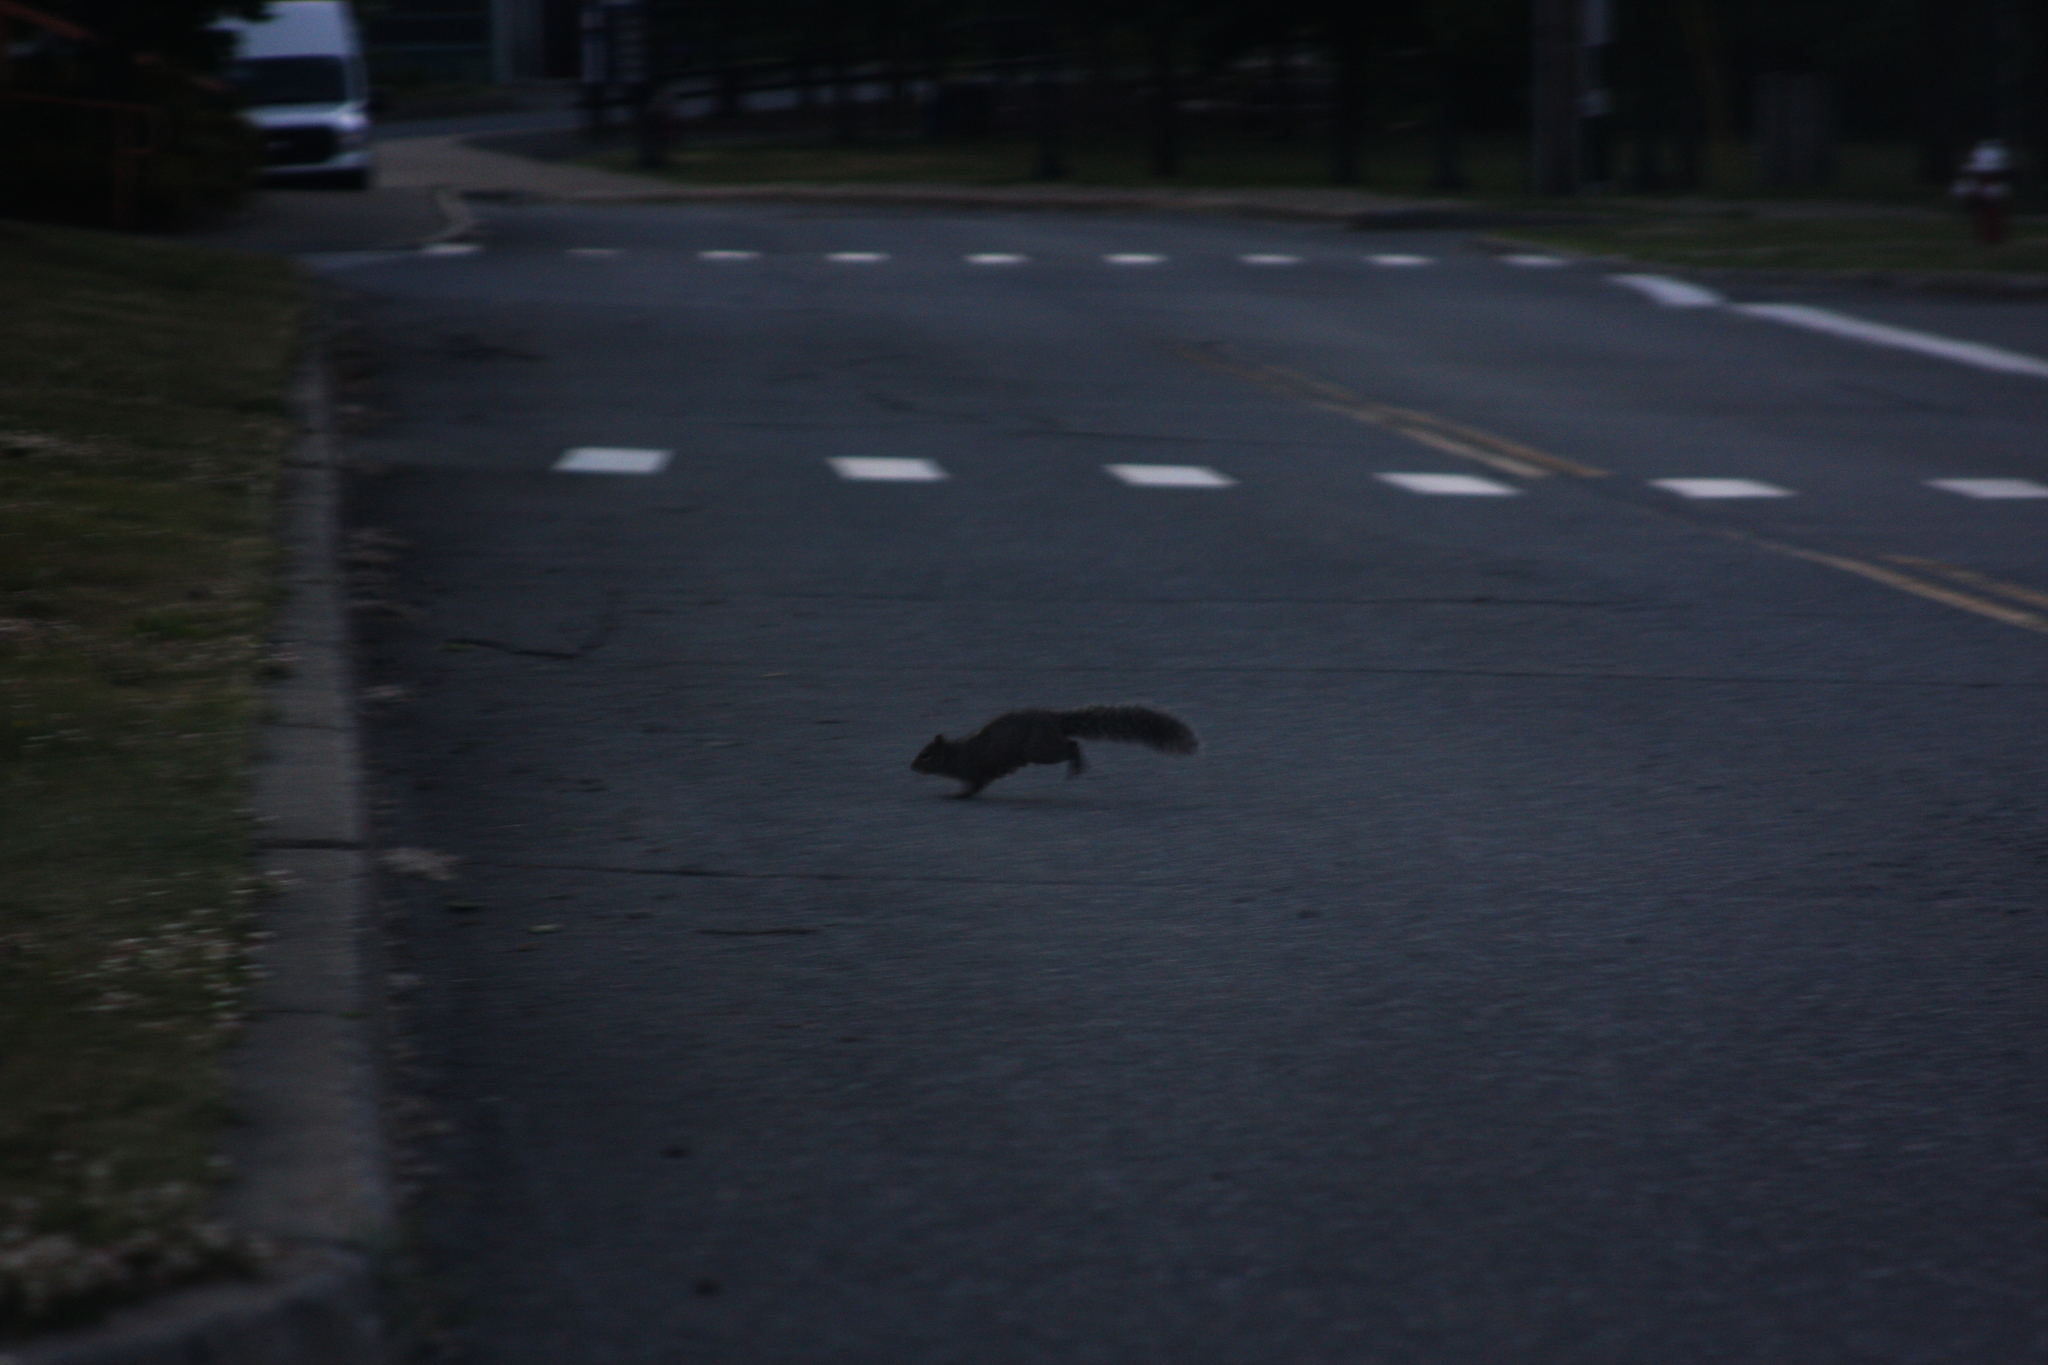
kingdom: Animalia
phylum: Chordata
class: Mammalia
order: Rodentia
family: Sciuridae
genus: Sciurus
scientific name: Sciurus carolinensis
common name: Eastern gray squirrel
